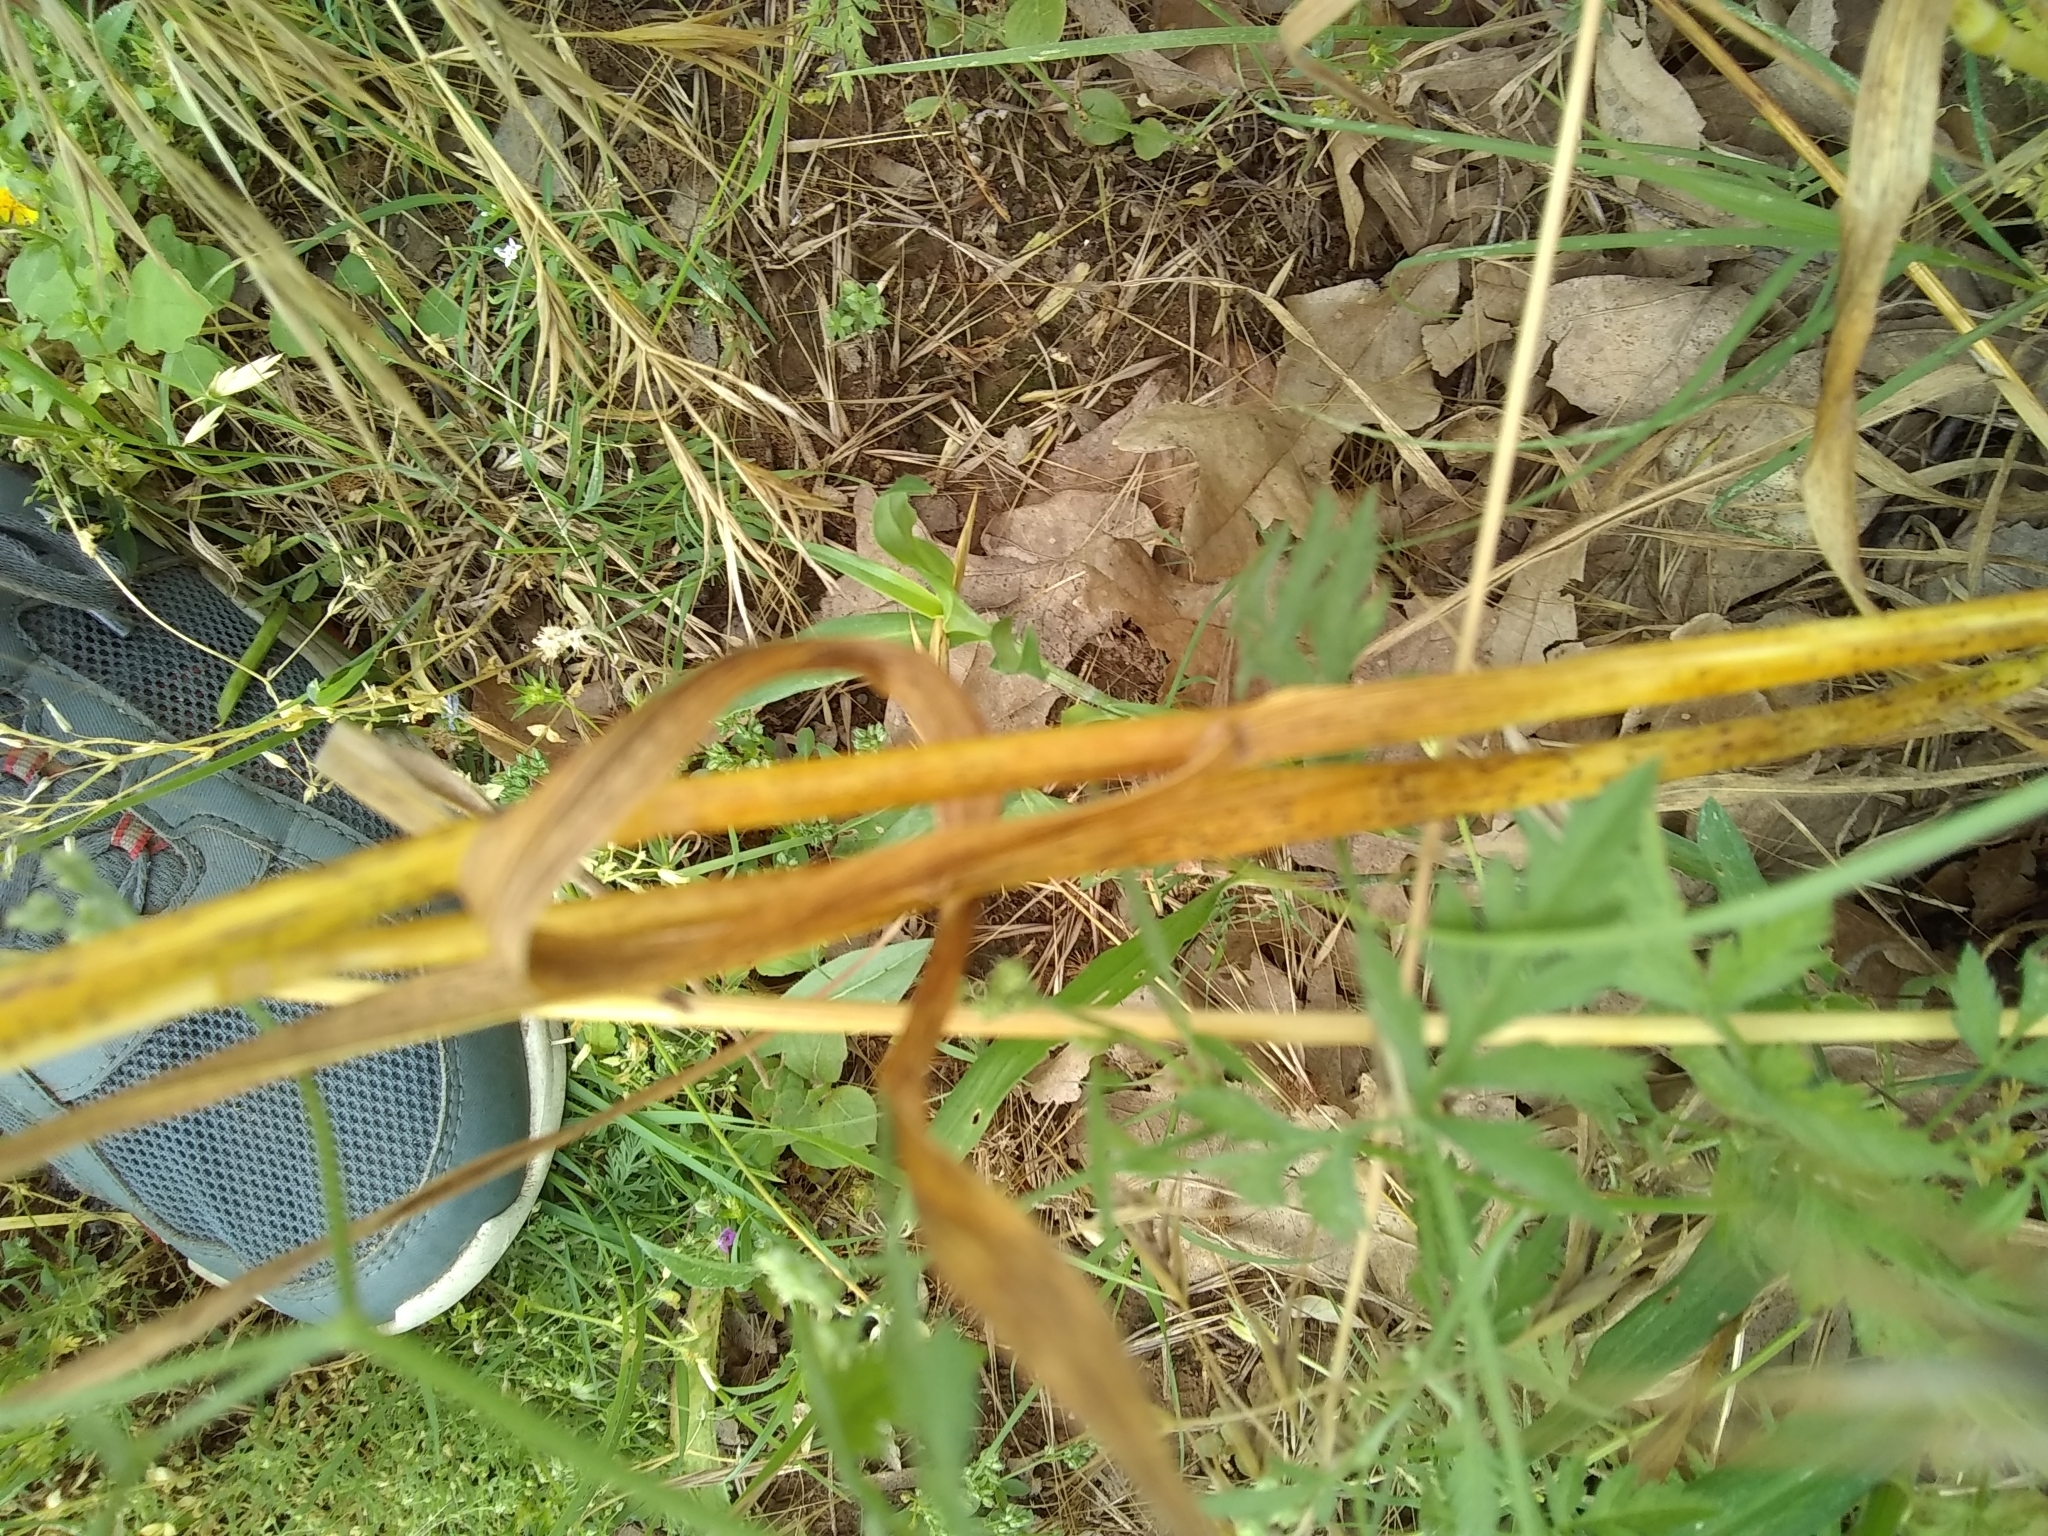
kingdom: Plantae
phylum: Tracheophyta
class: Liliopsida
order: Poales
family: Poaceae
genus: Avena
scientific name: Avena fatua
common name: Wild oat
